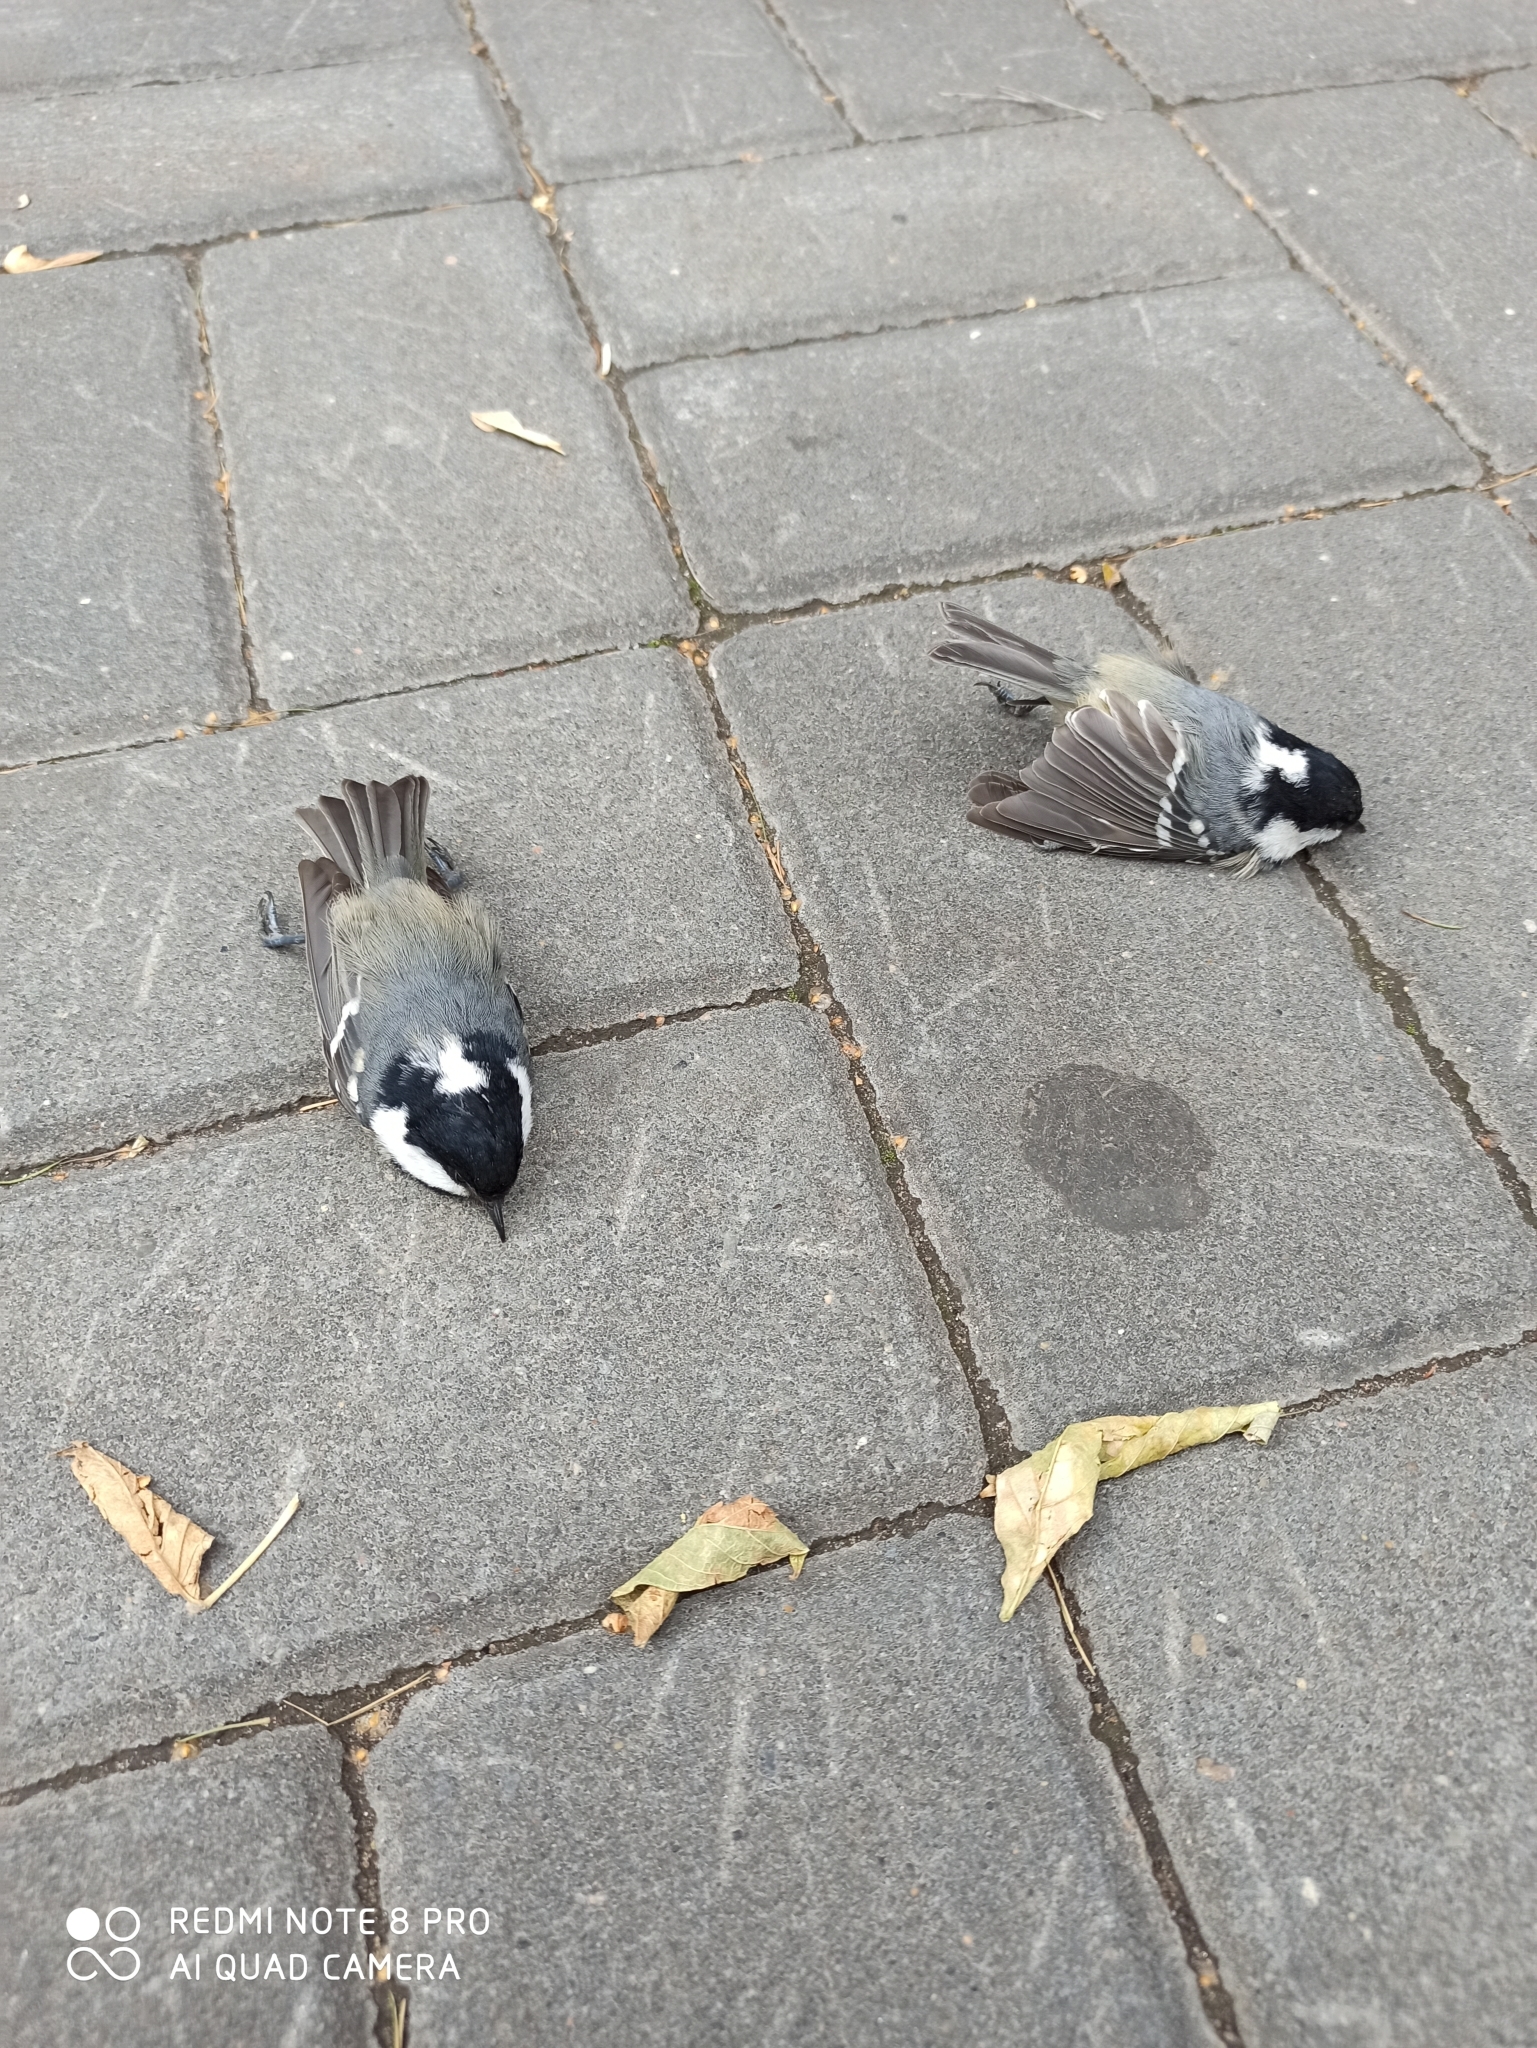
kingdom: Animalia
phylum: Chordata
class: Aves
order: Passeriformes
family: Paridae
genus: Periparus
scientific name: Periparus ater
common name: Coal tit
